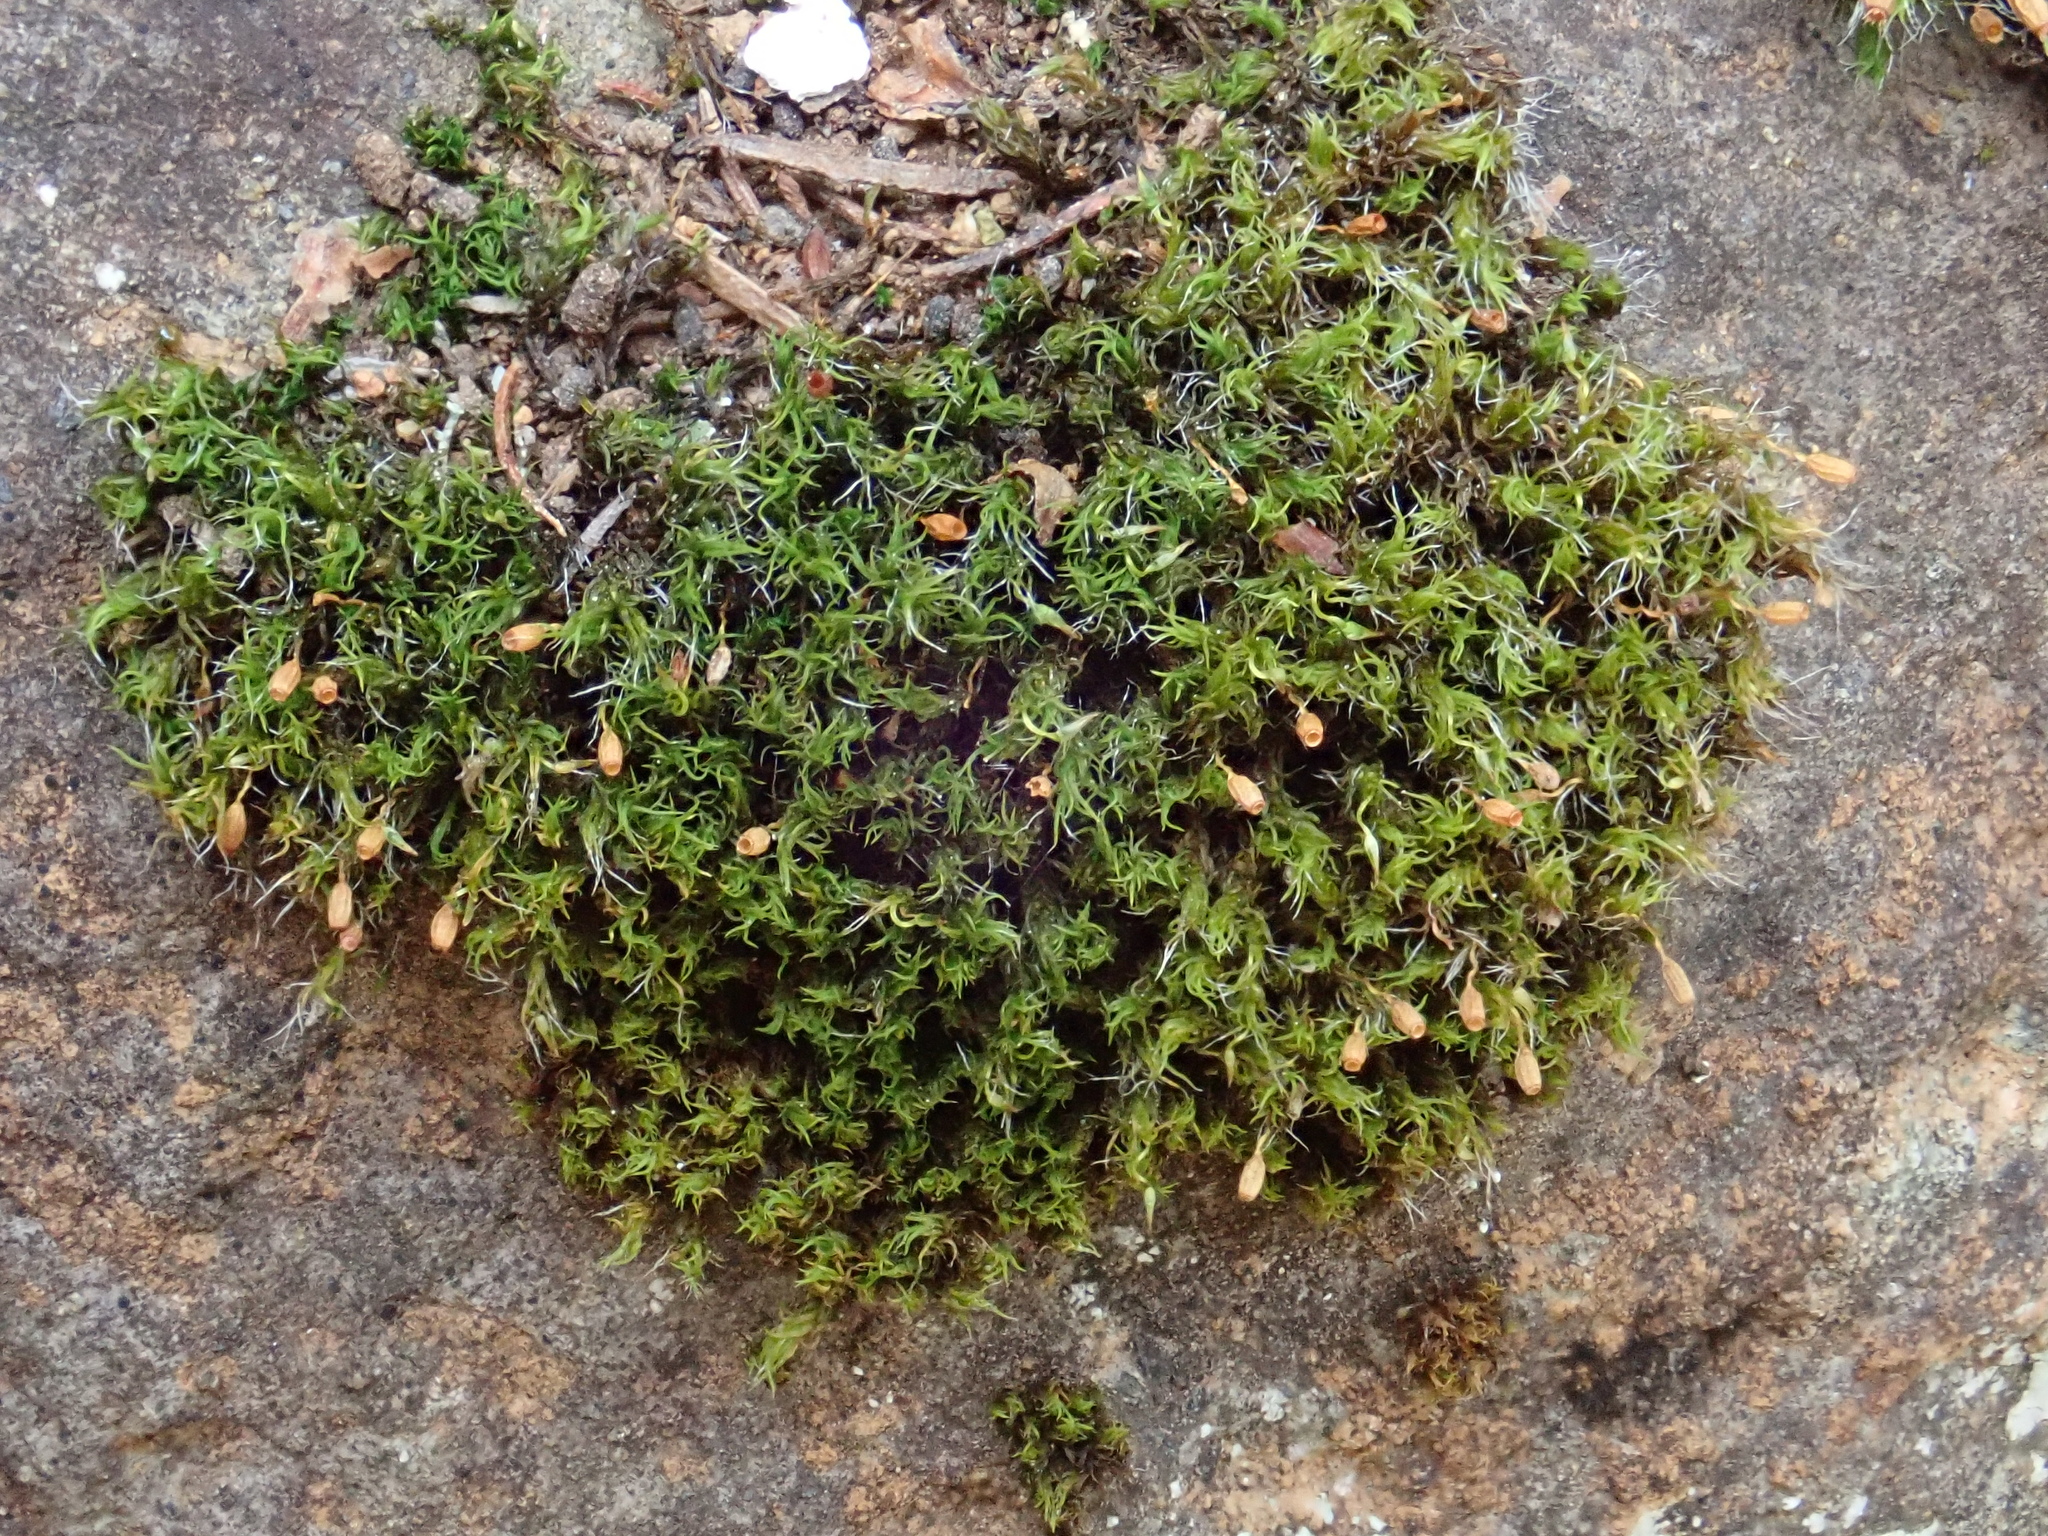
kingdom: Plantae
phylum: Bryophyta
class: Bryopsida
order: Grimmiales
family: Grimmiaceae
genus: Grimmia
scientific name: Grimmia trichophylla
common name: Hair-pointed grimmia
